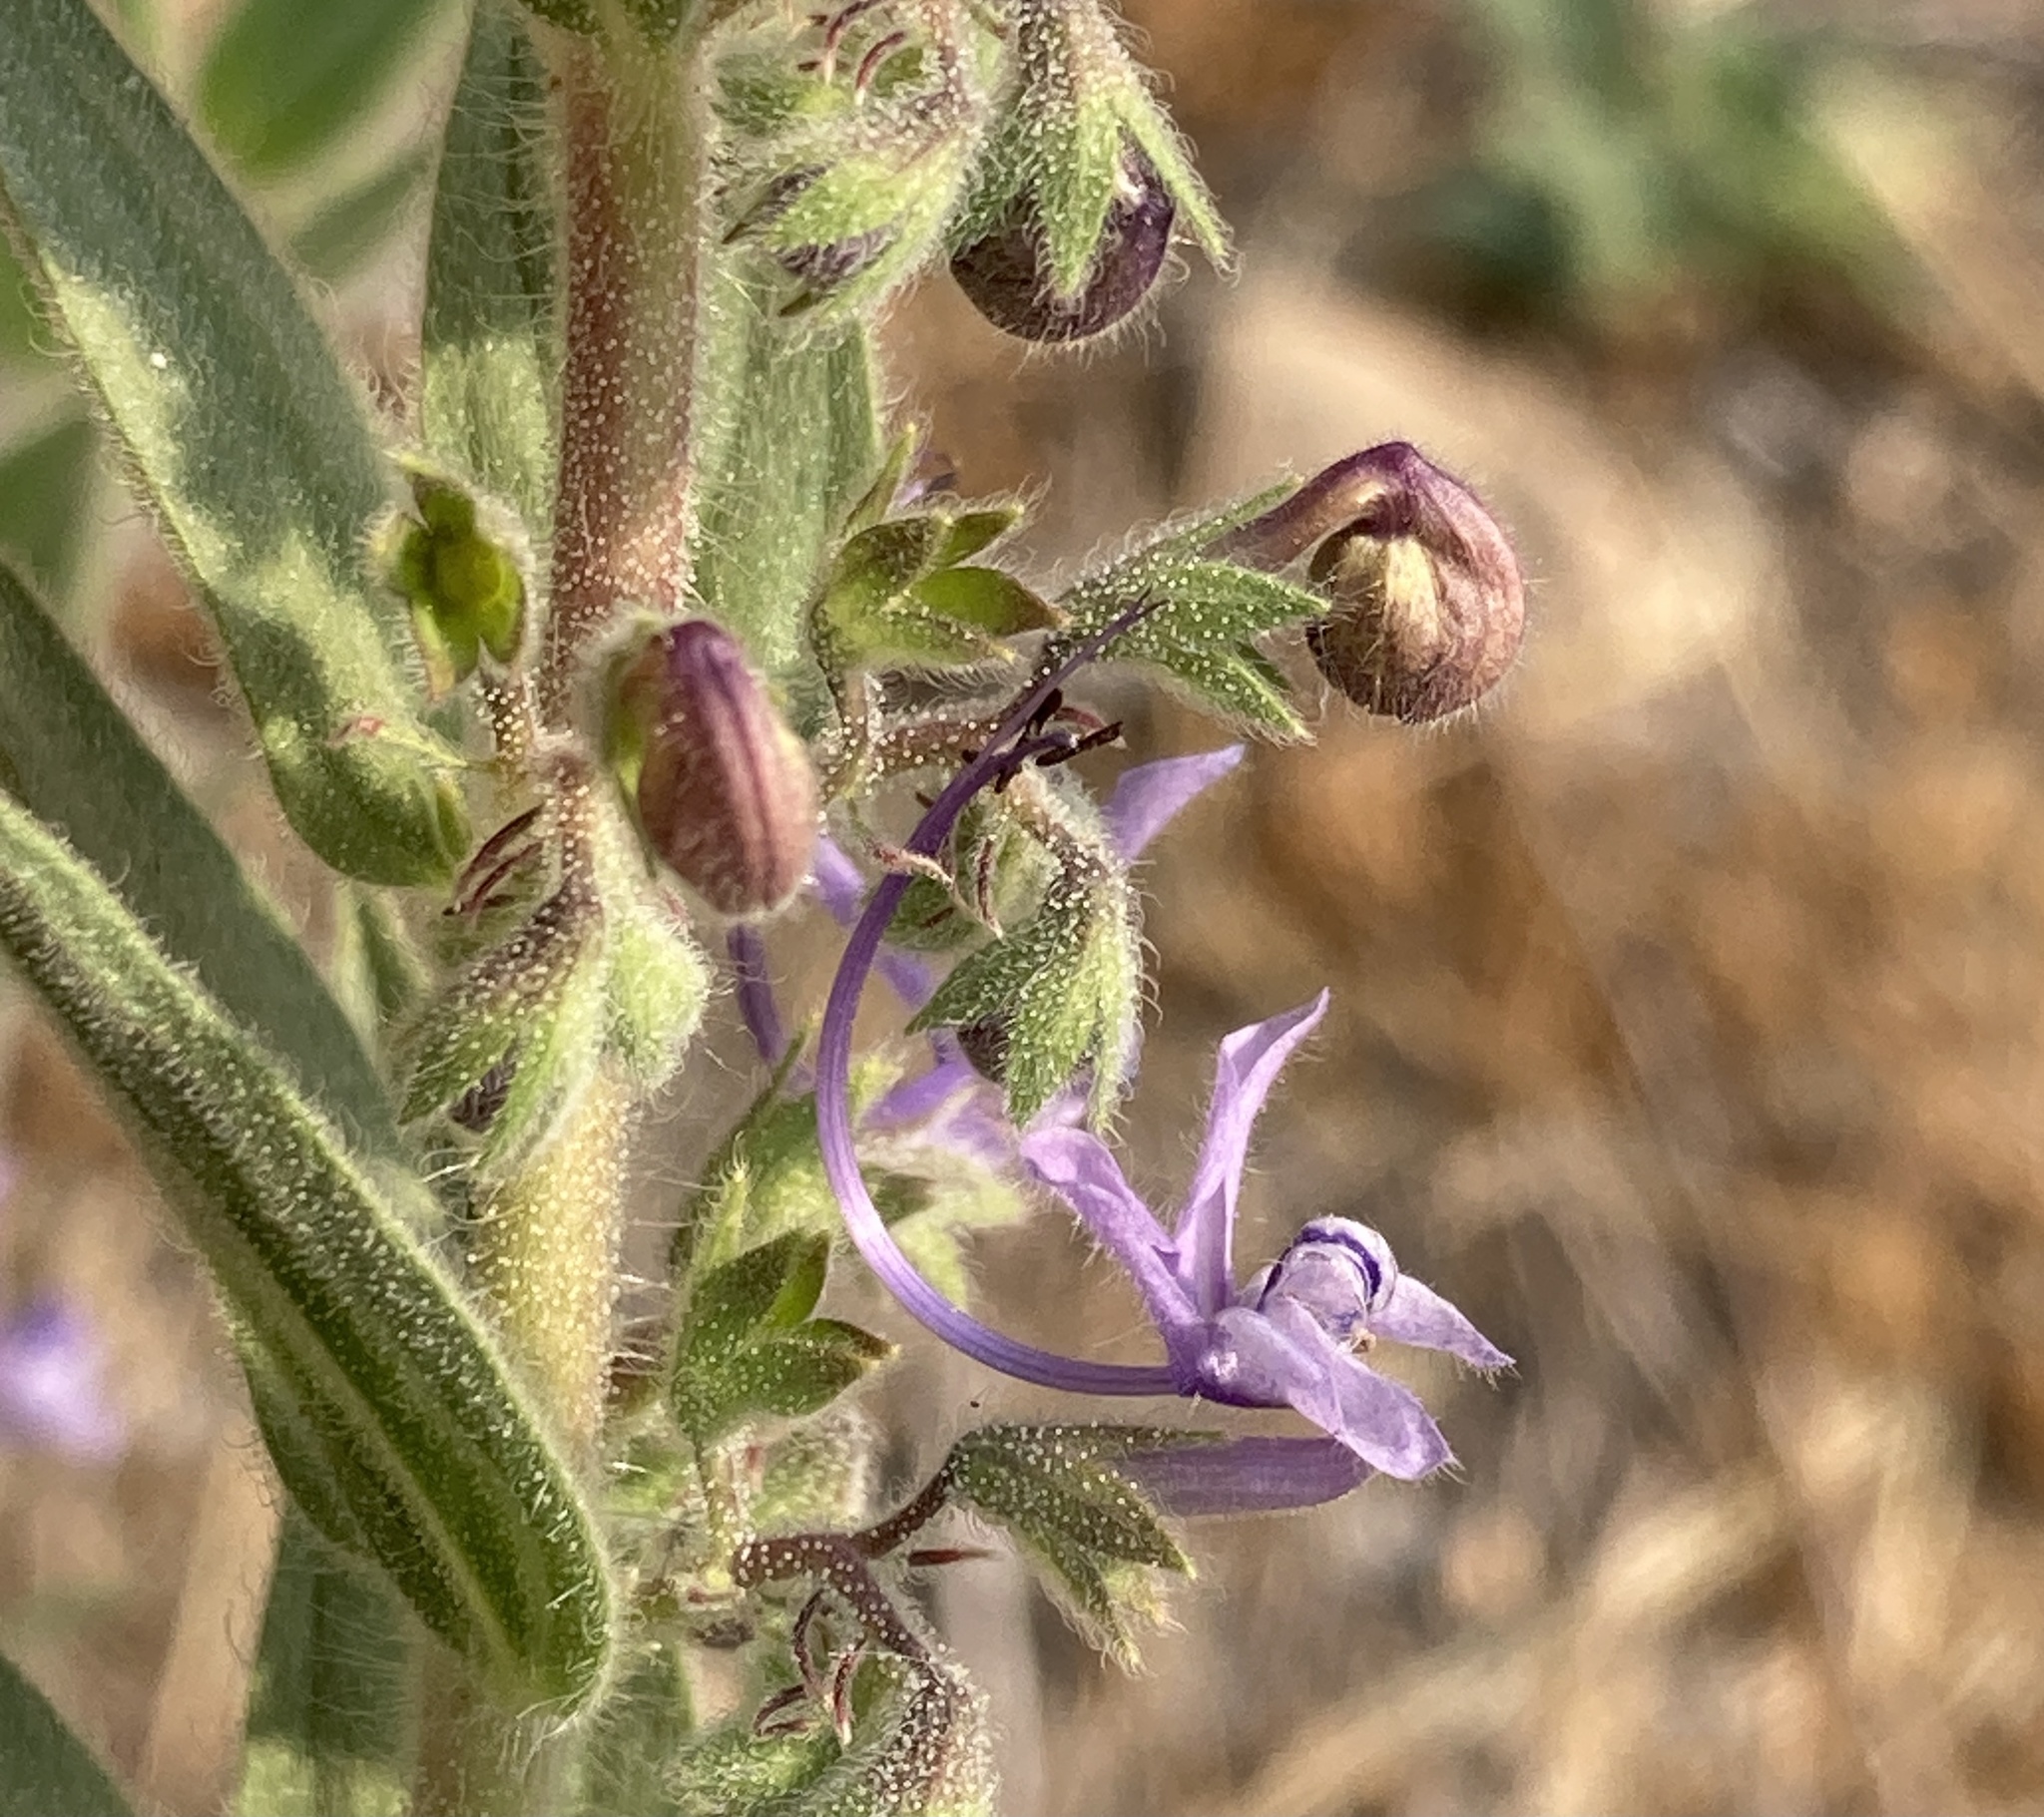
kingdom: Plantae
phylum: Tracheophyta
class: Magnoliopsida
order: Lamiales
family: Lamiaceae
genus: Trichostema
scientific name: Trichostema lanceolatum
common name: Vinegar-weed
